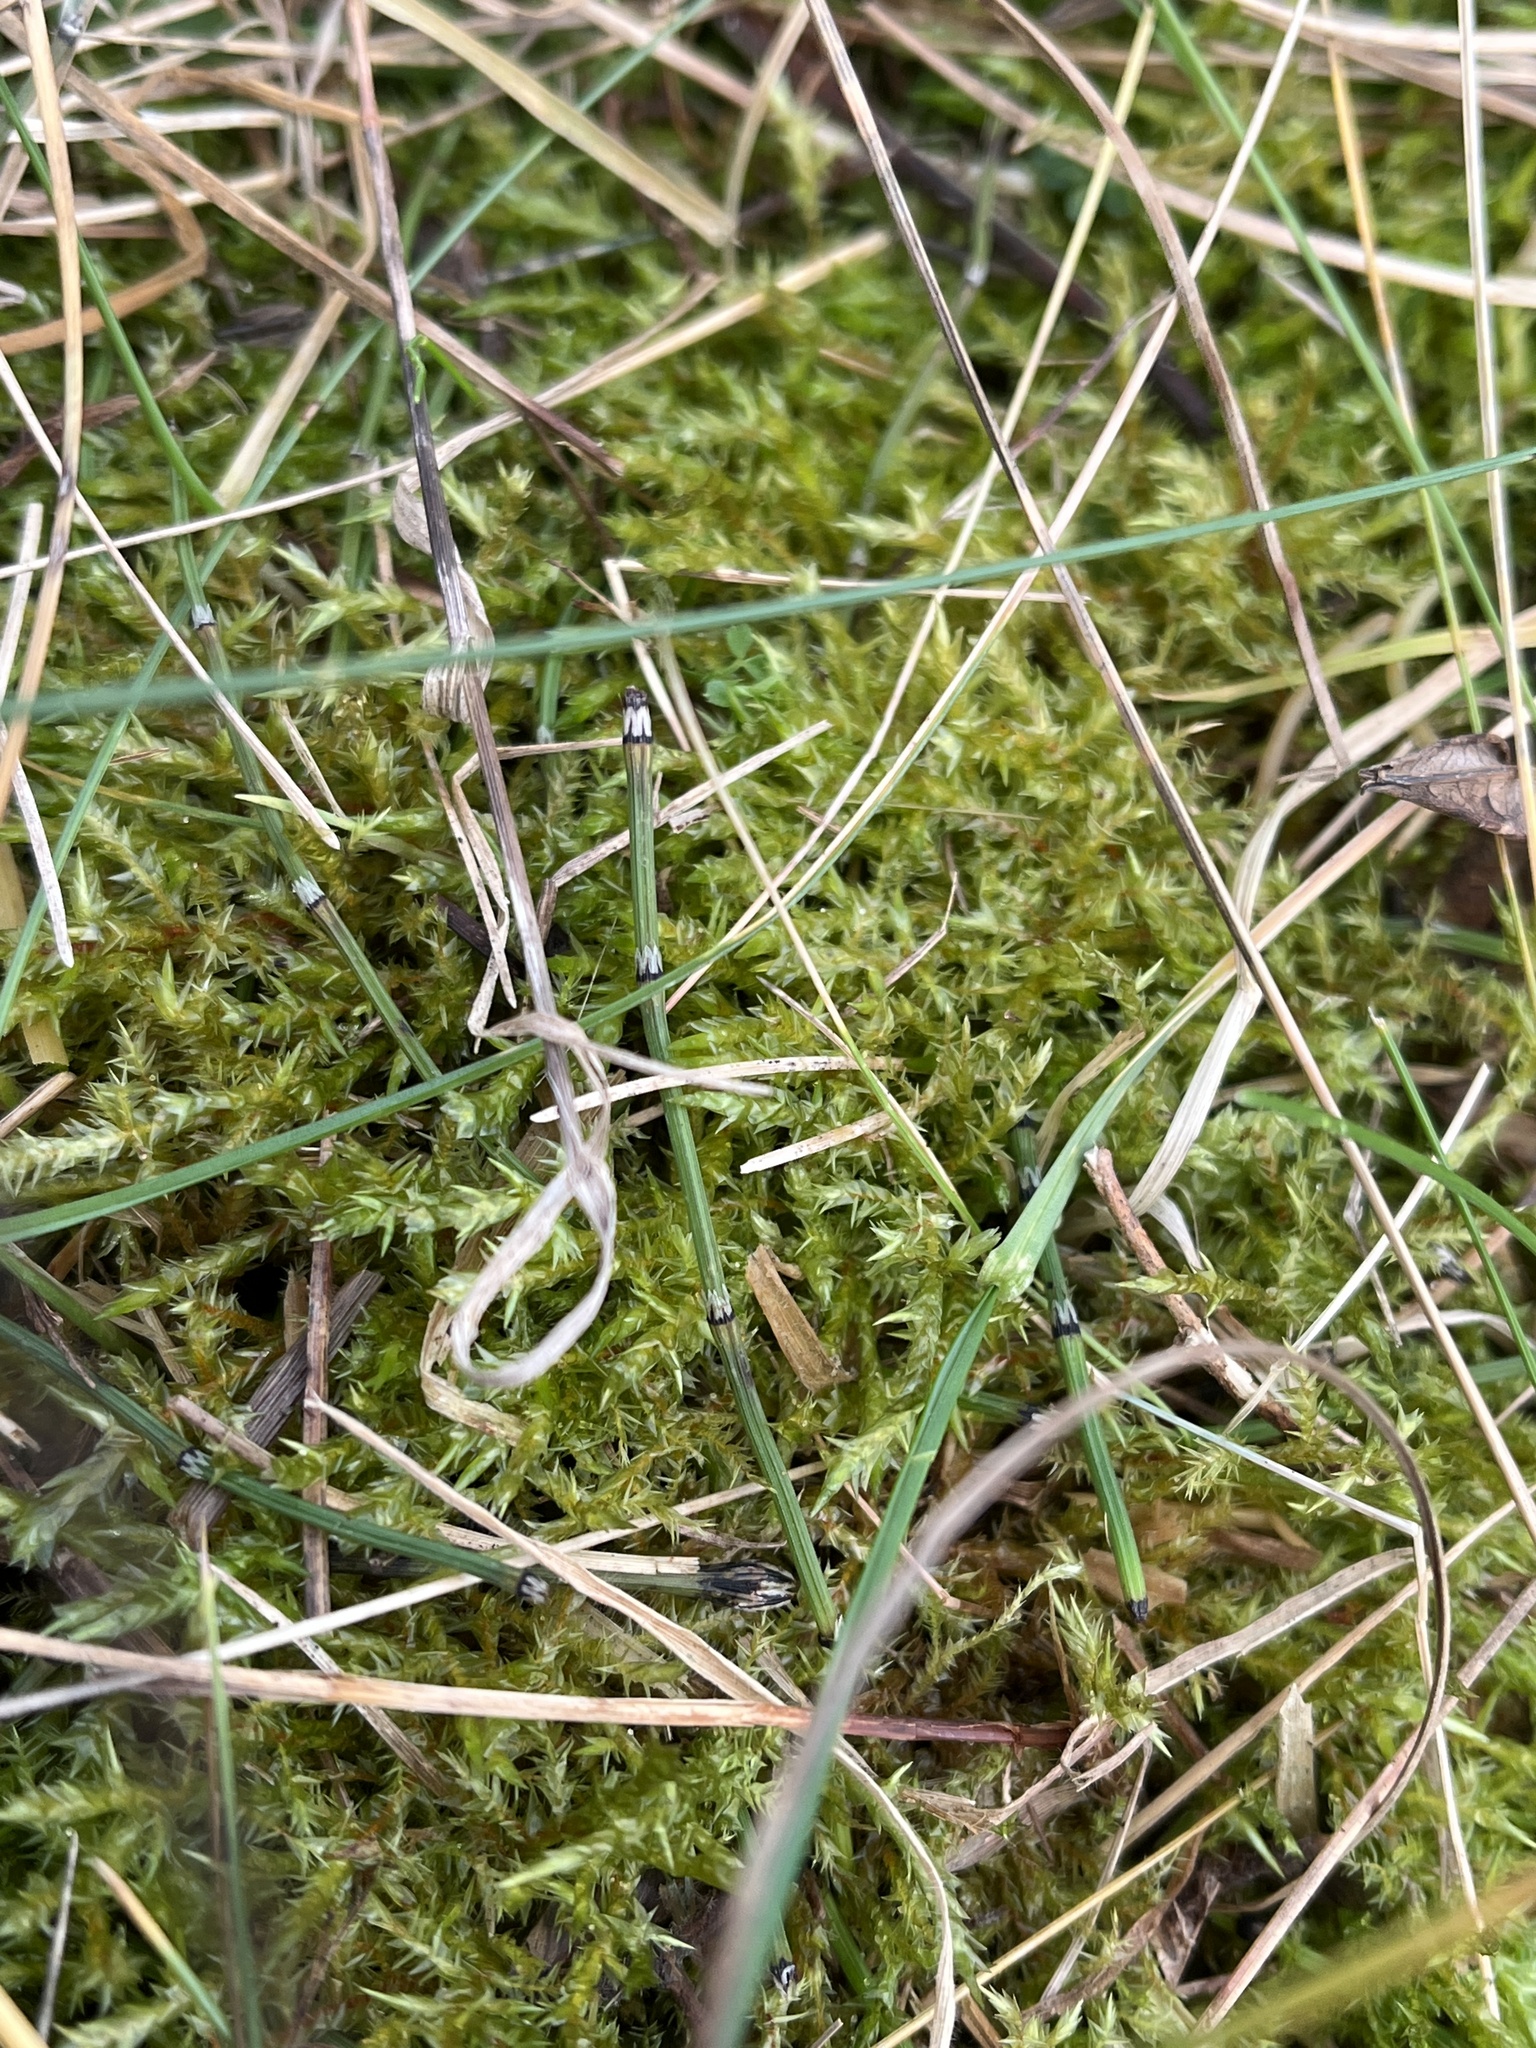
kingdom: Plantae
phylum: Tracheophyta
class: Polypodiopsida
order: Equisetales
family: Equisetaceae
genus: Equisetum
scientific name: Equisetum variegatum
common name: Variegated horsetail
